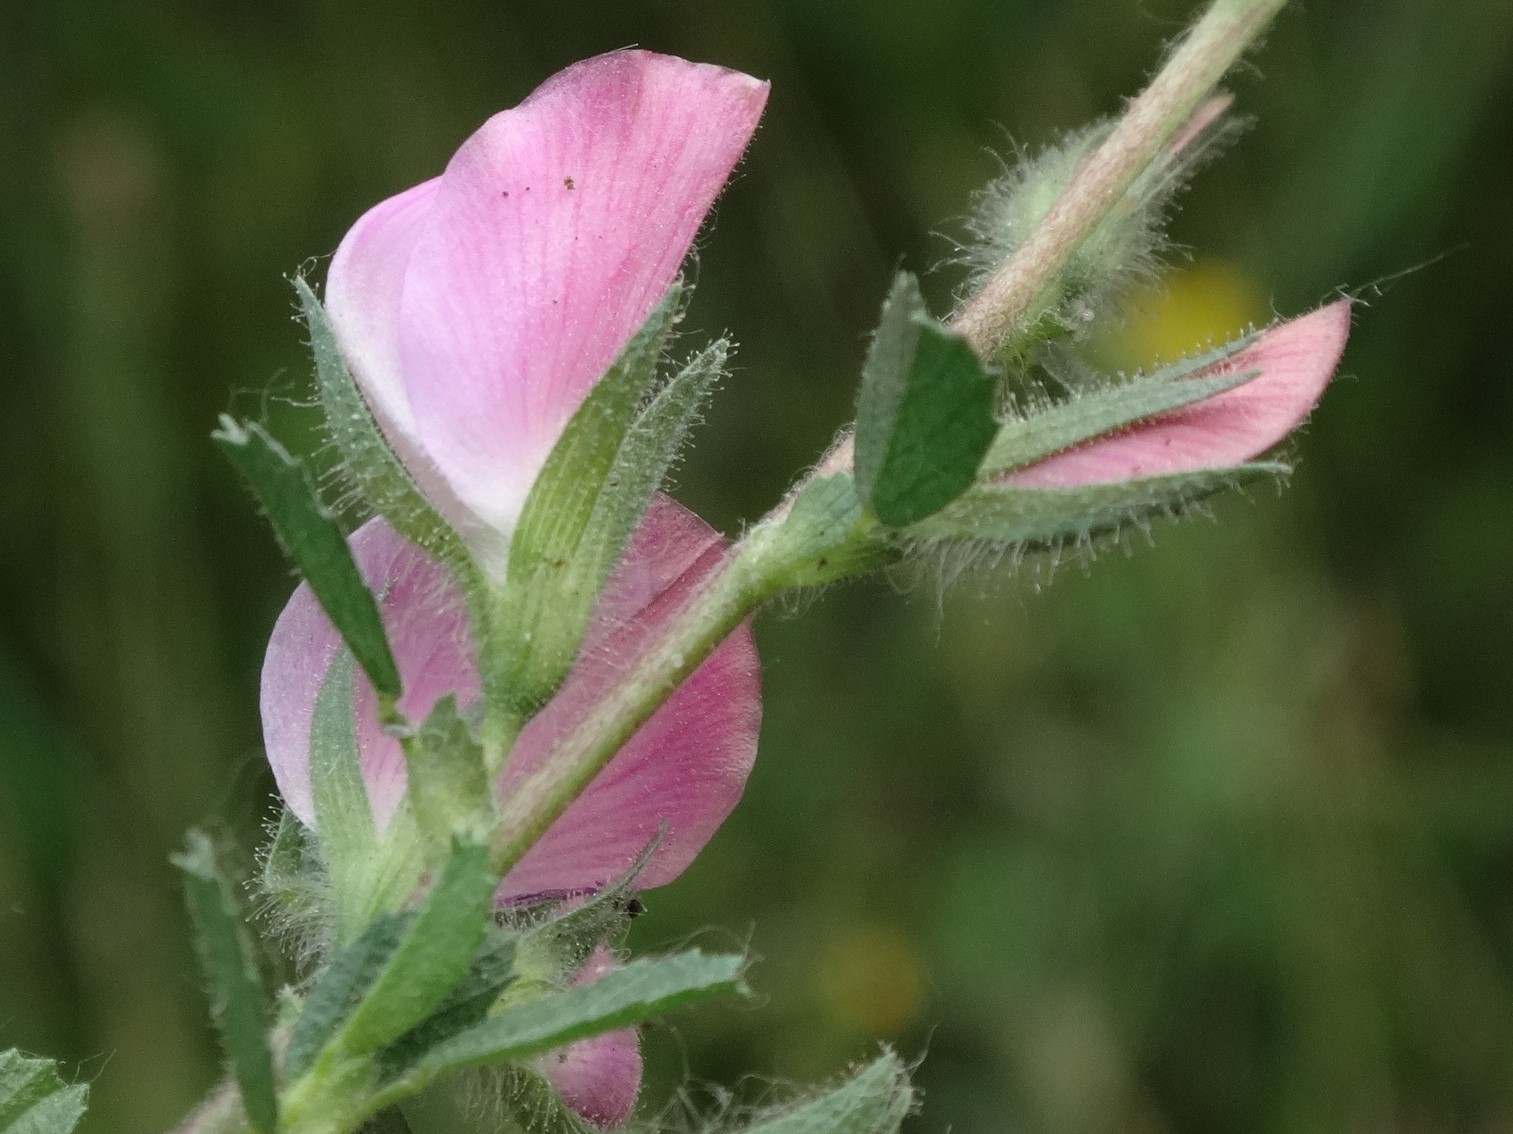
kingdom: Plantae
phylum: Tracheophyta
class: Magnoliopsida
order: Fabales
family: Fabaceae
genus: Ononis
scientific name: Ononis spinosa
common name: Spiny restharrow
